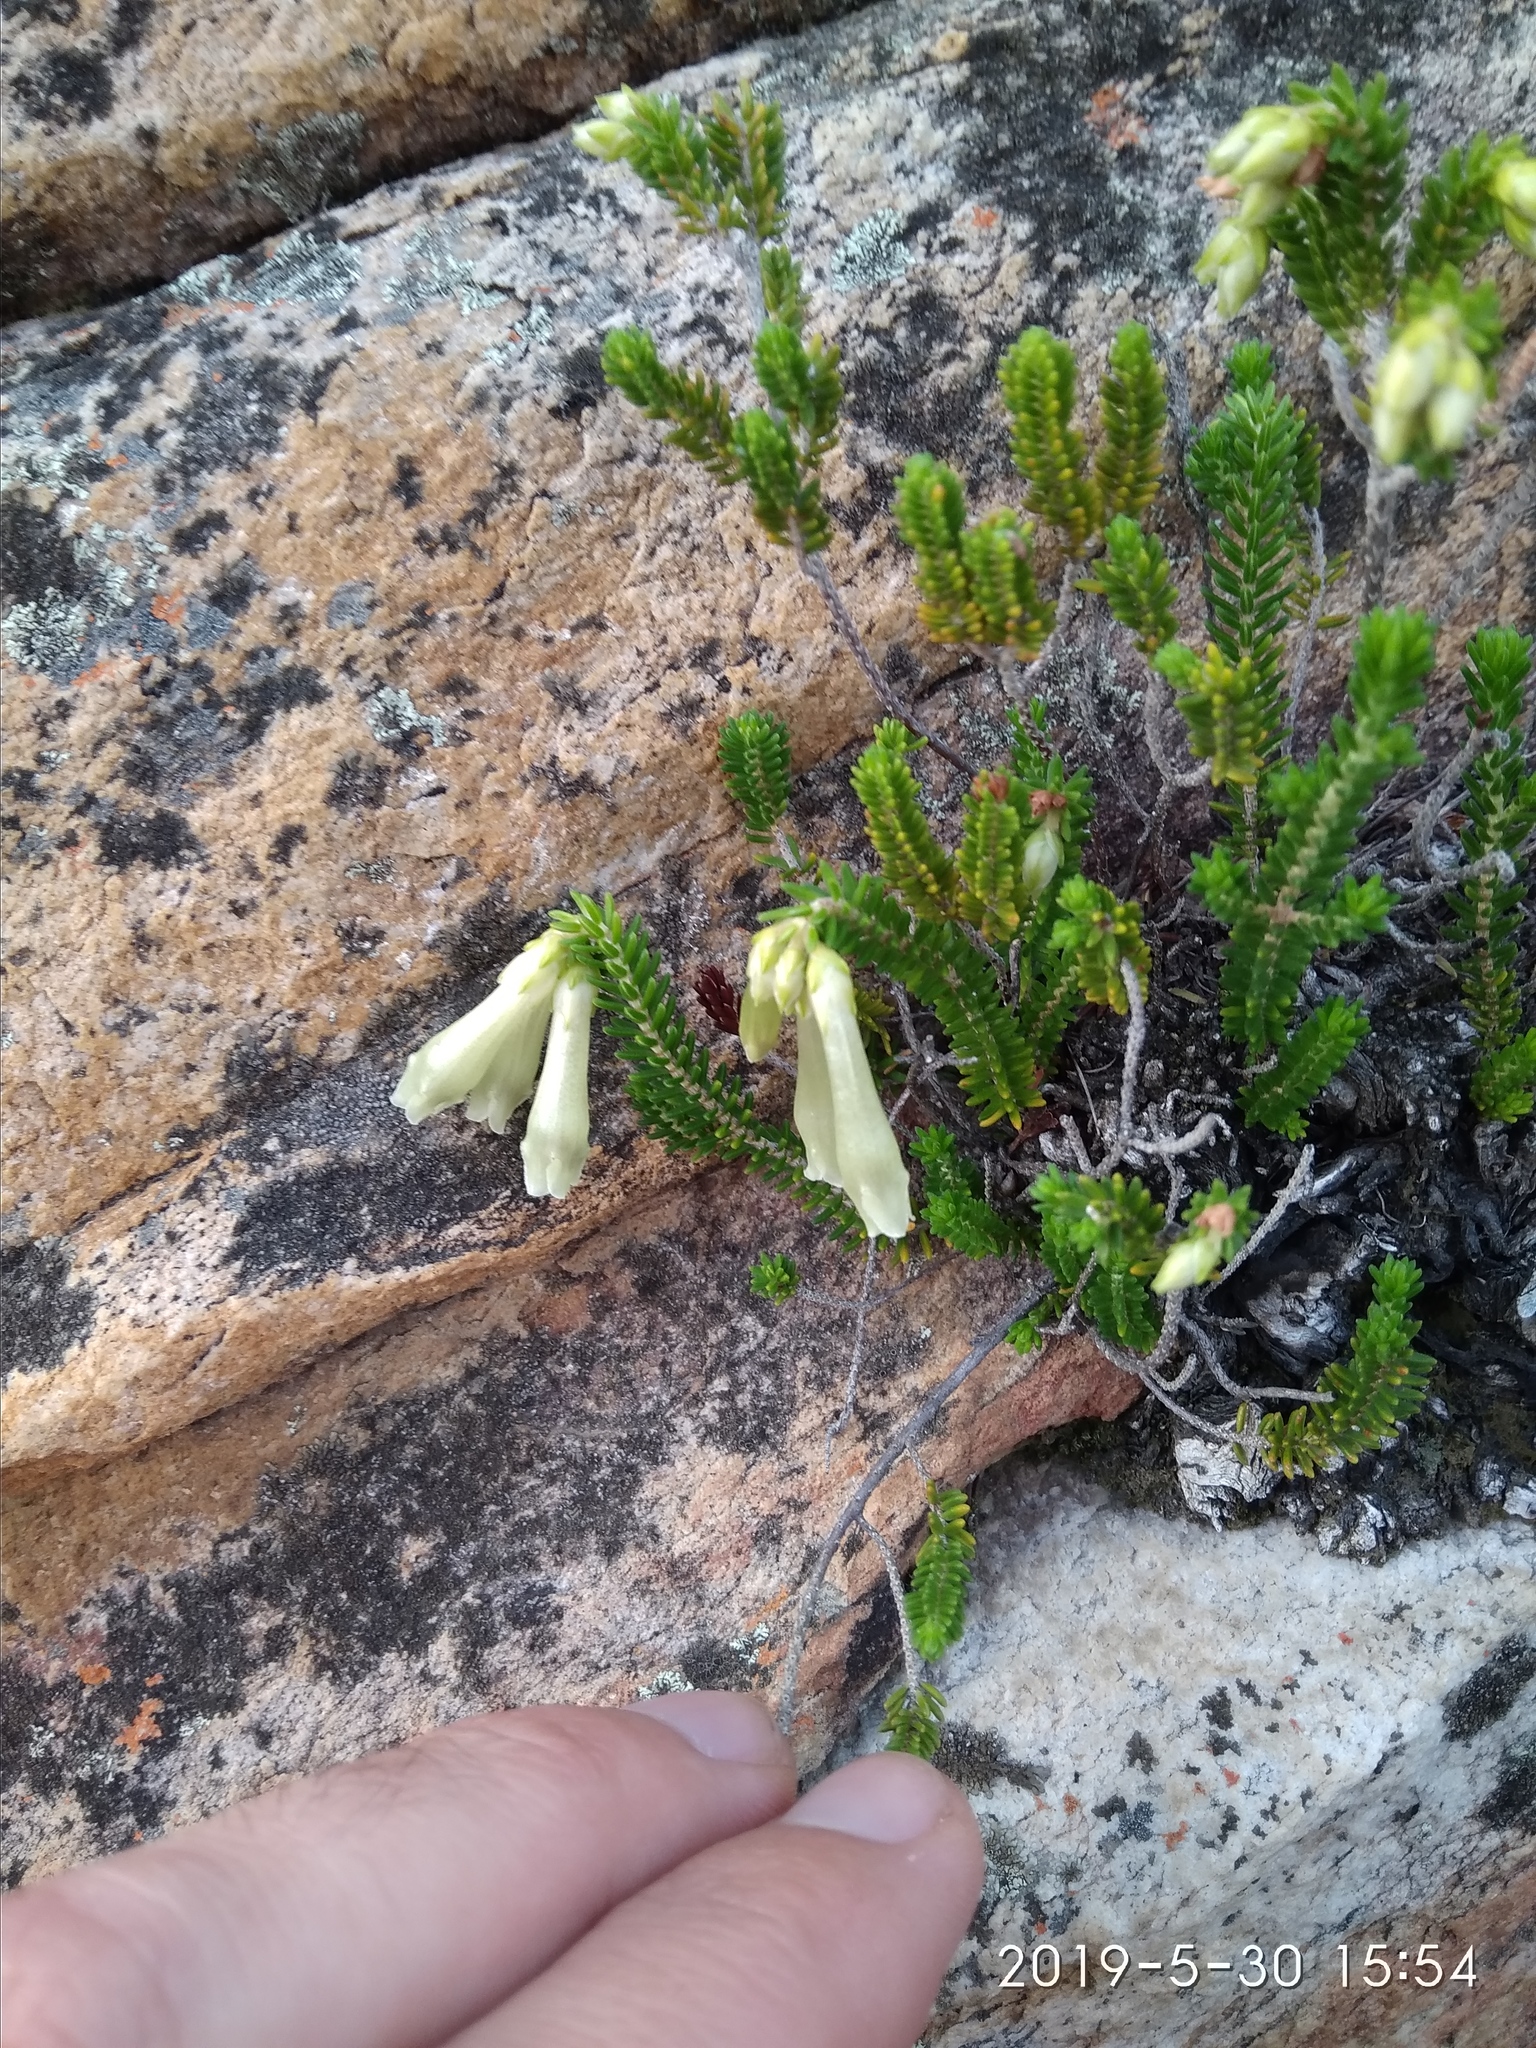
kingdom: Plantae
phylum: Tracheophyta
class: Magnoliopsida
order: Ericales
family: Ericaceae
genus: Erica
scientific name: Erica viridiflora
